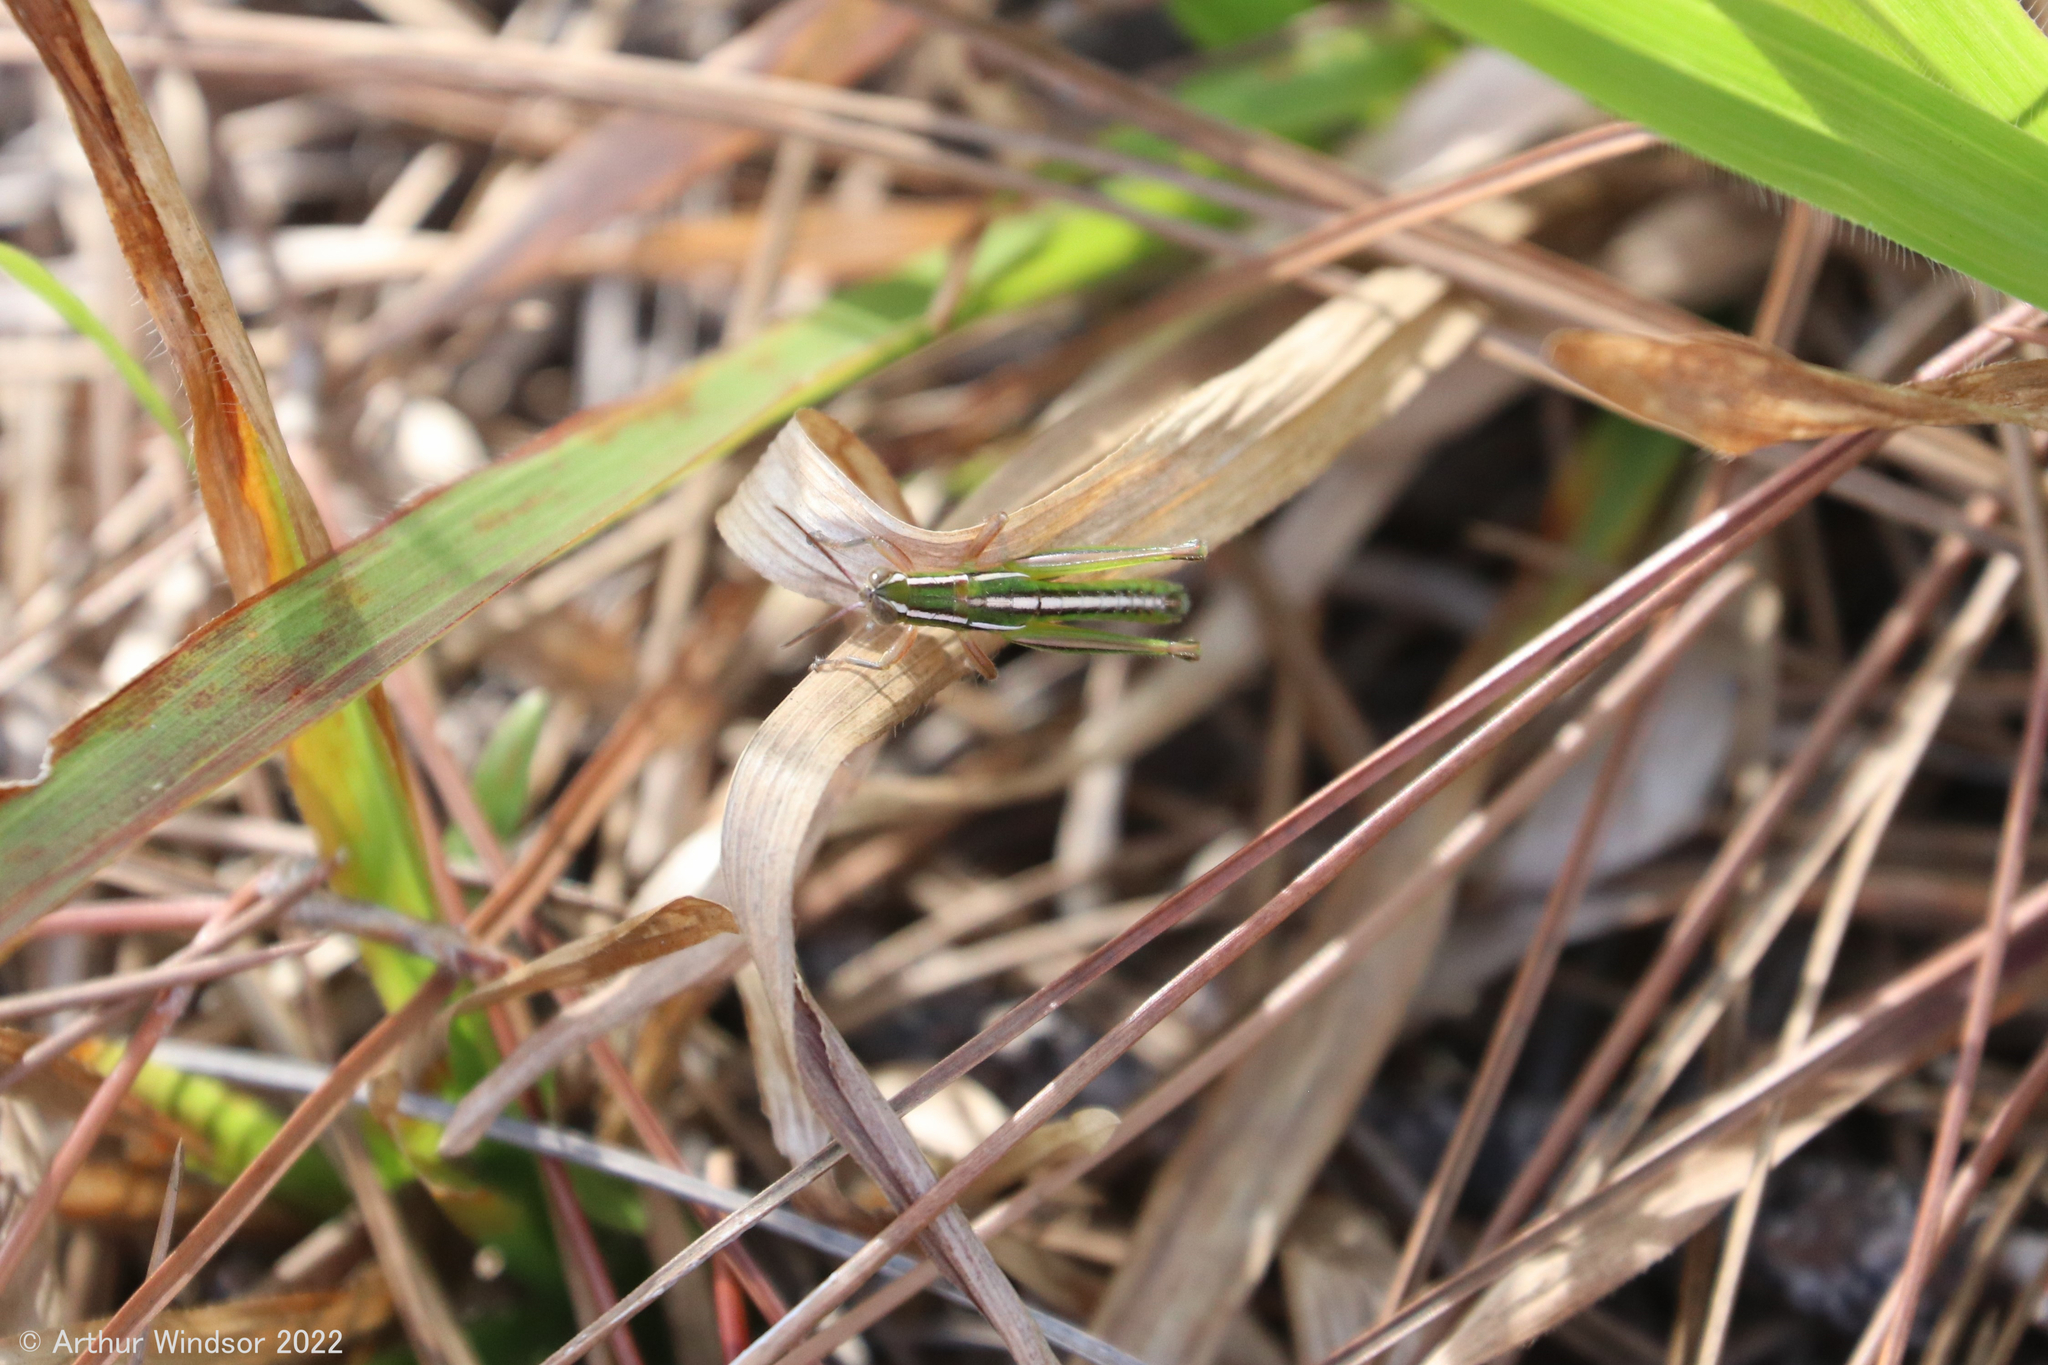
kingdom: Animalia
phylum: Arthropoda
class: Insecta
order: Orthoptera
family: Acrididae
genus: Aptenopedes
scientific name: Aptenopedes sphenarioides
